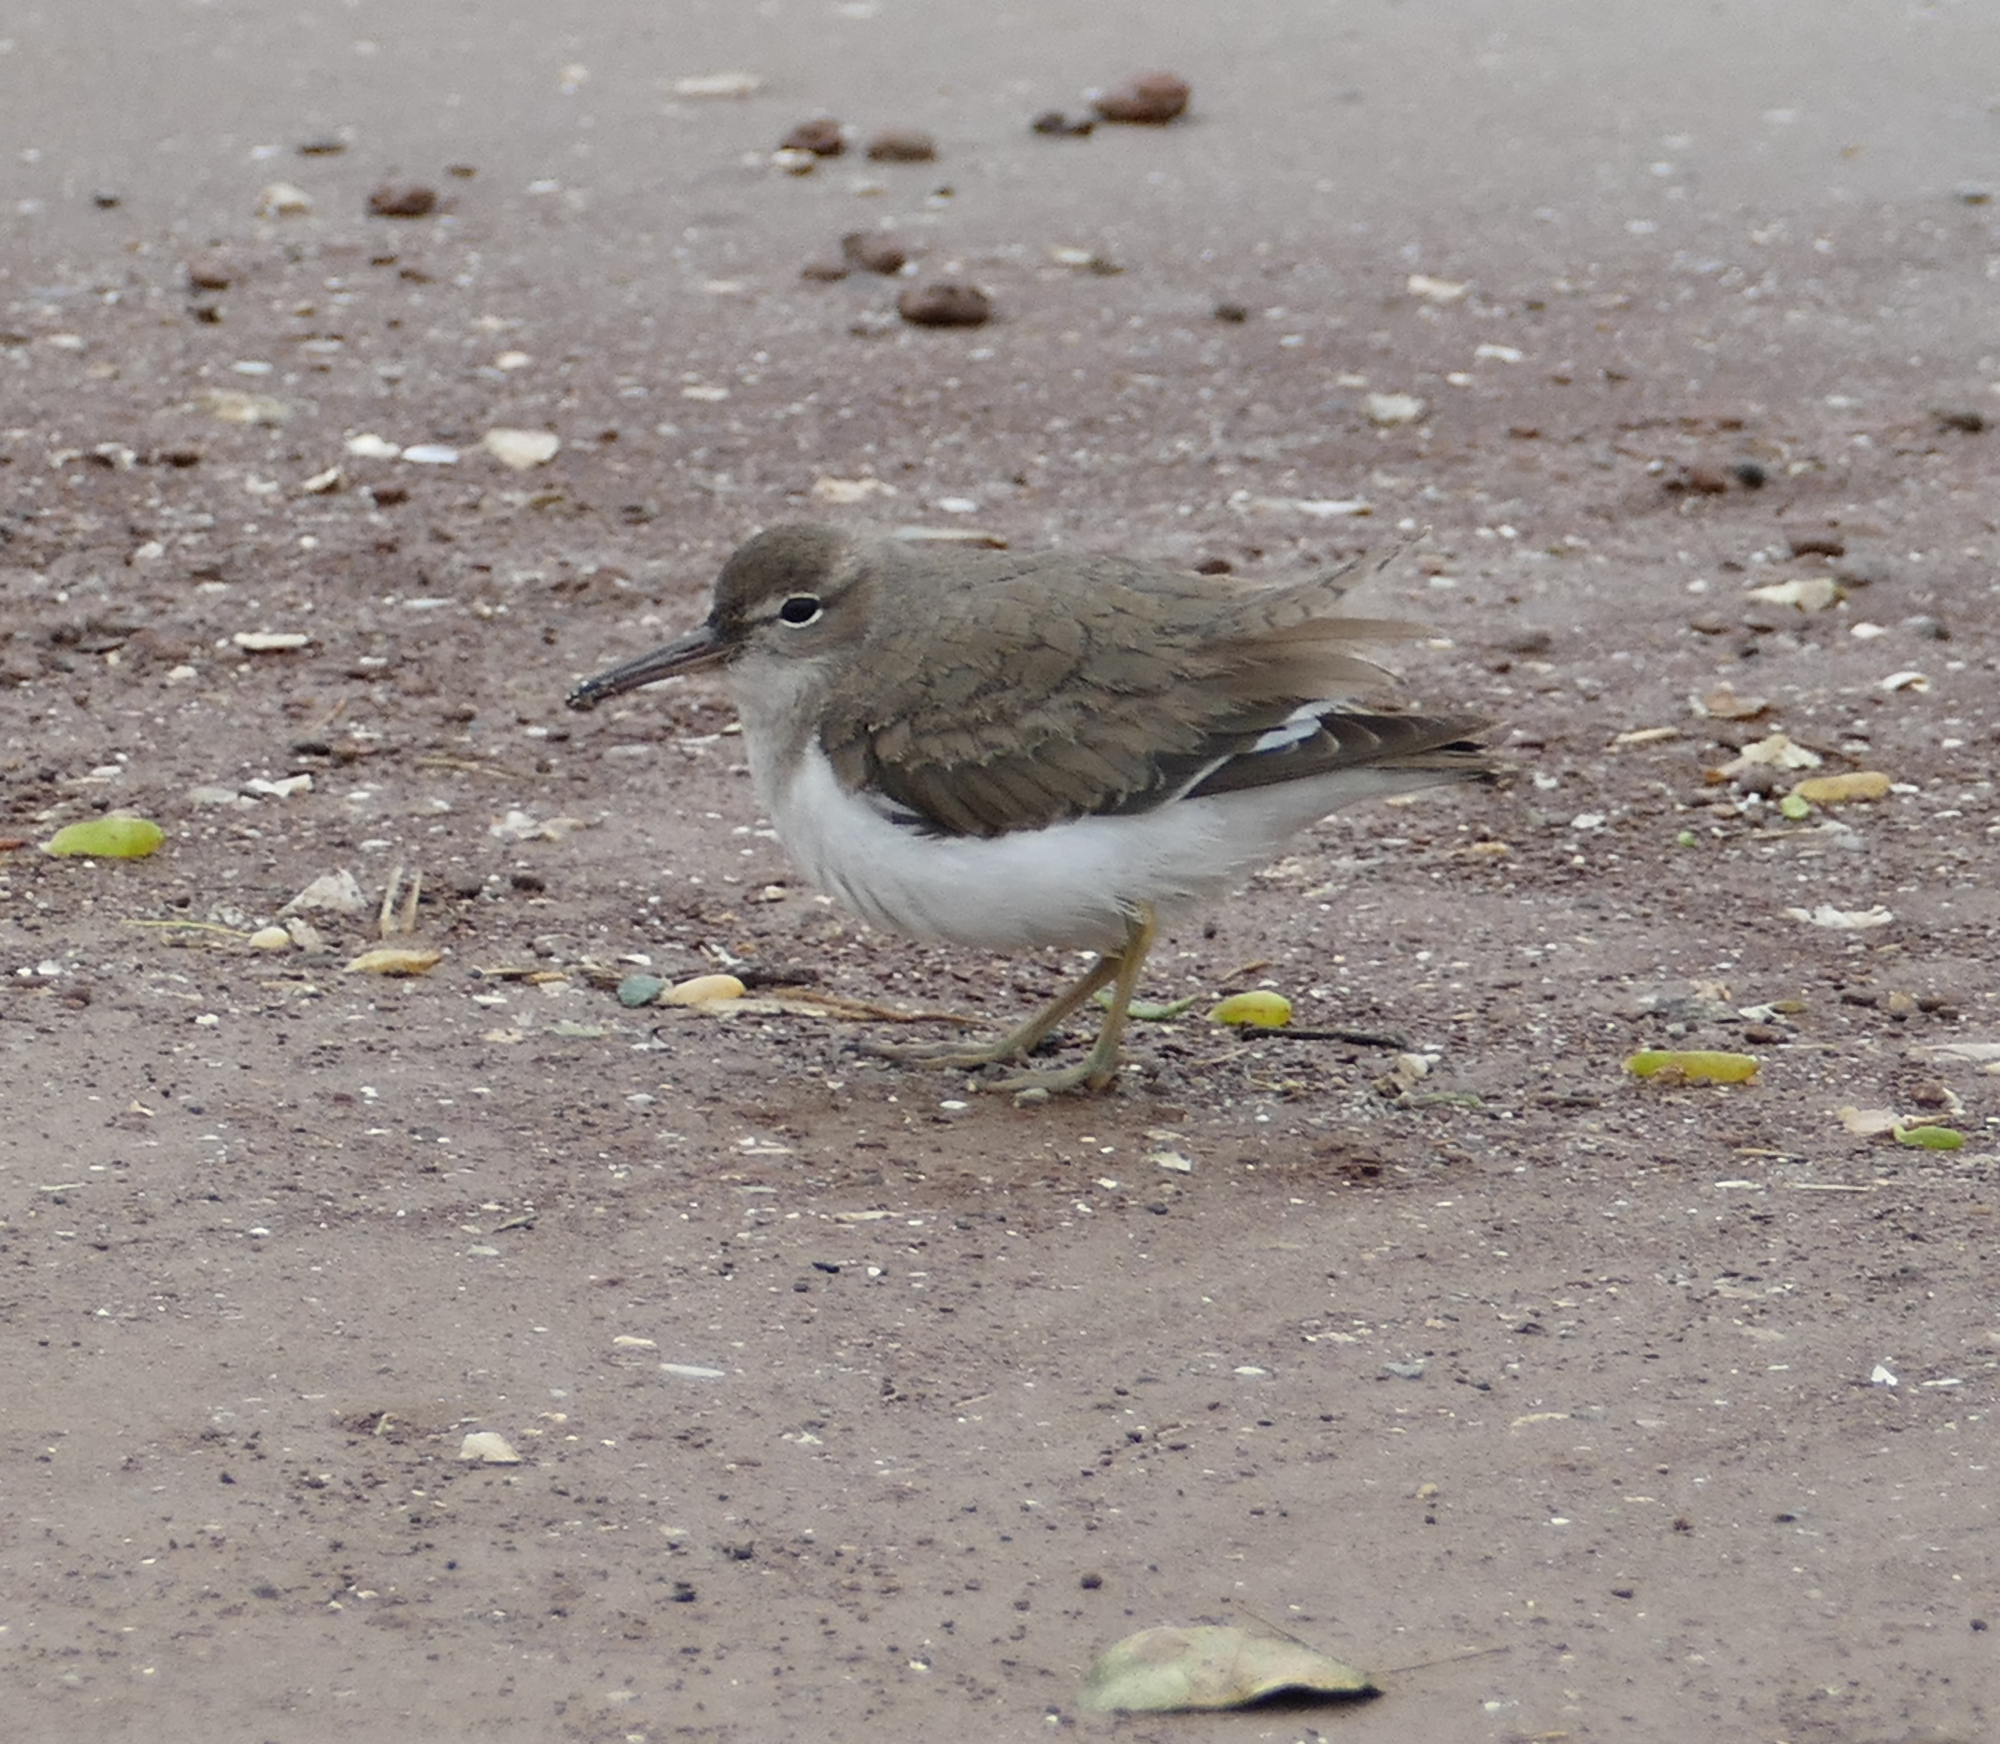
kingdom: Animalia
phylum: Chordata
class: Aves
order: Charadriiformes
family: Scolopacidae
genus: Actitis
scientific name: Actitis macularius
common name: Spotted sandpiper
